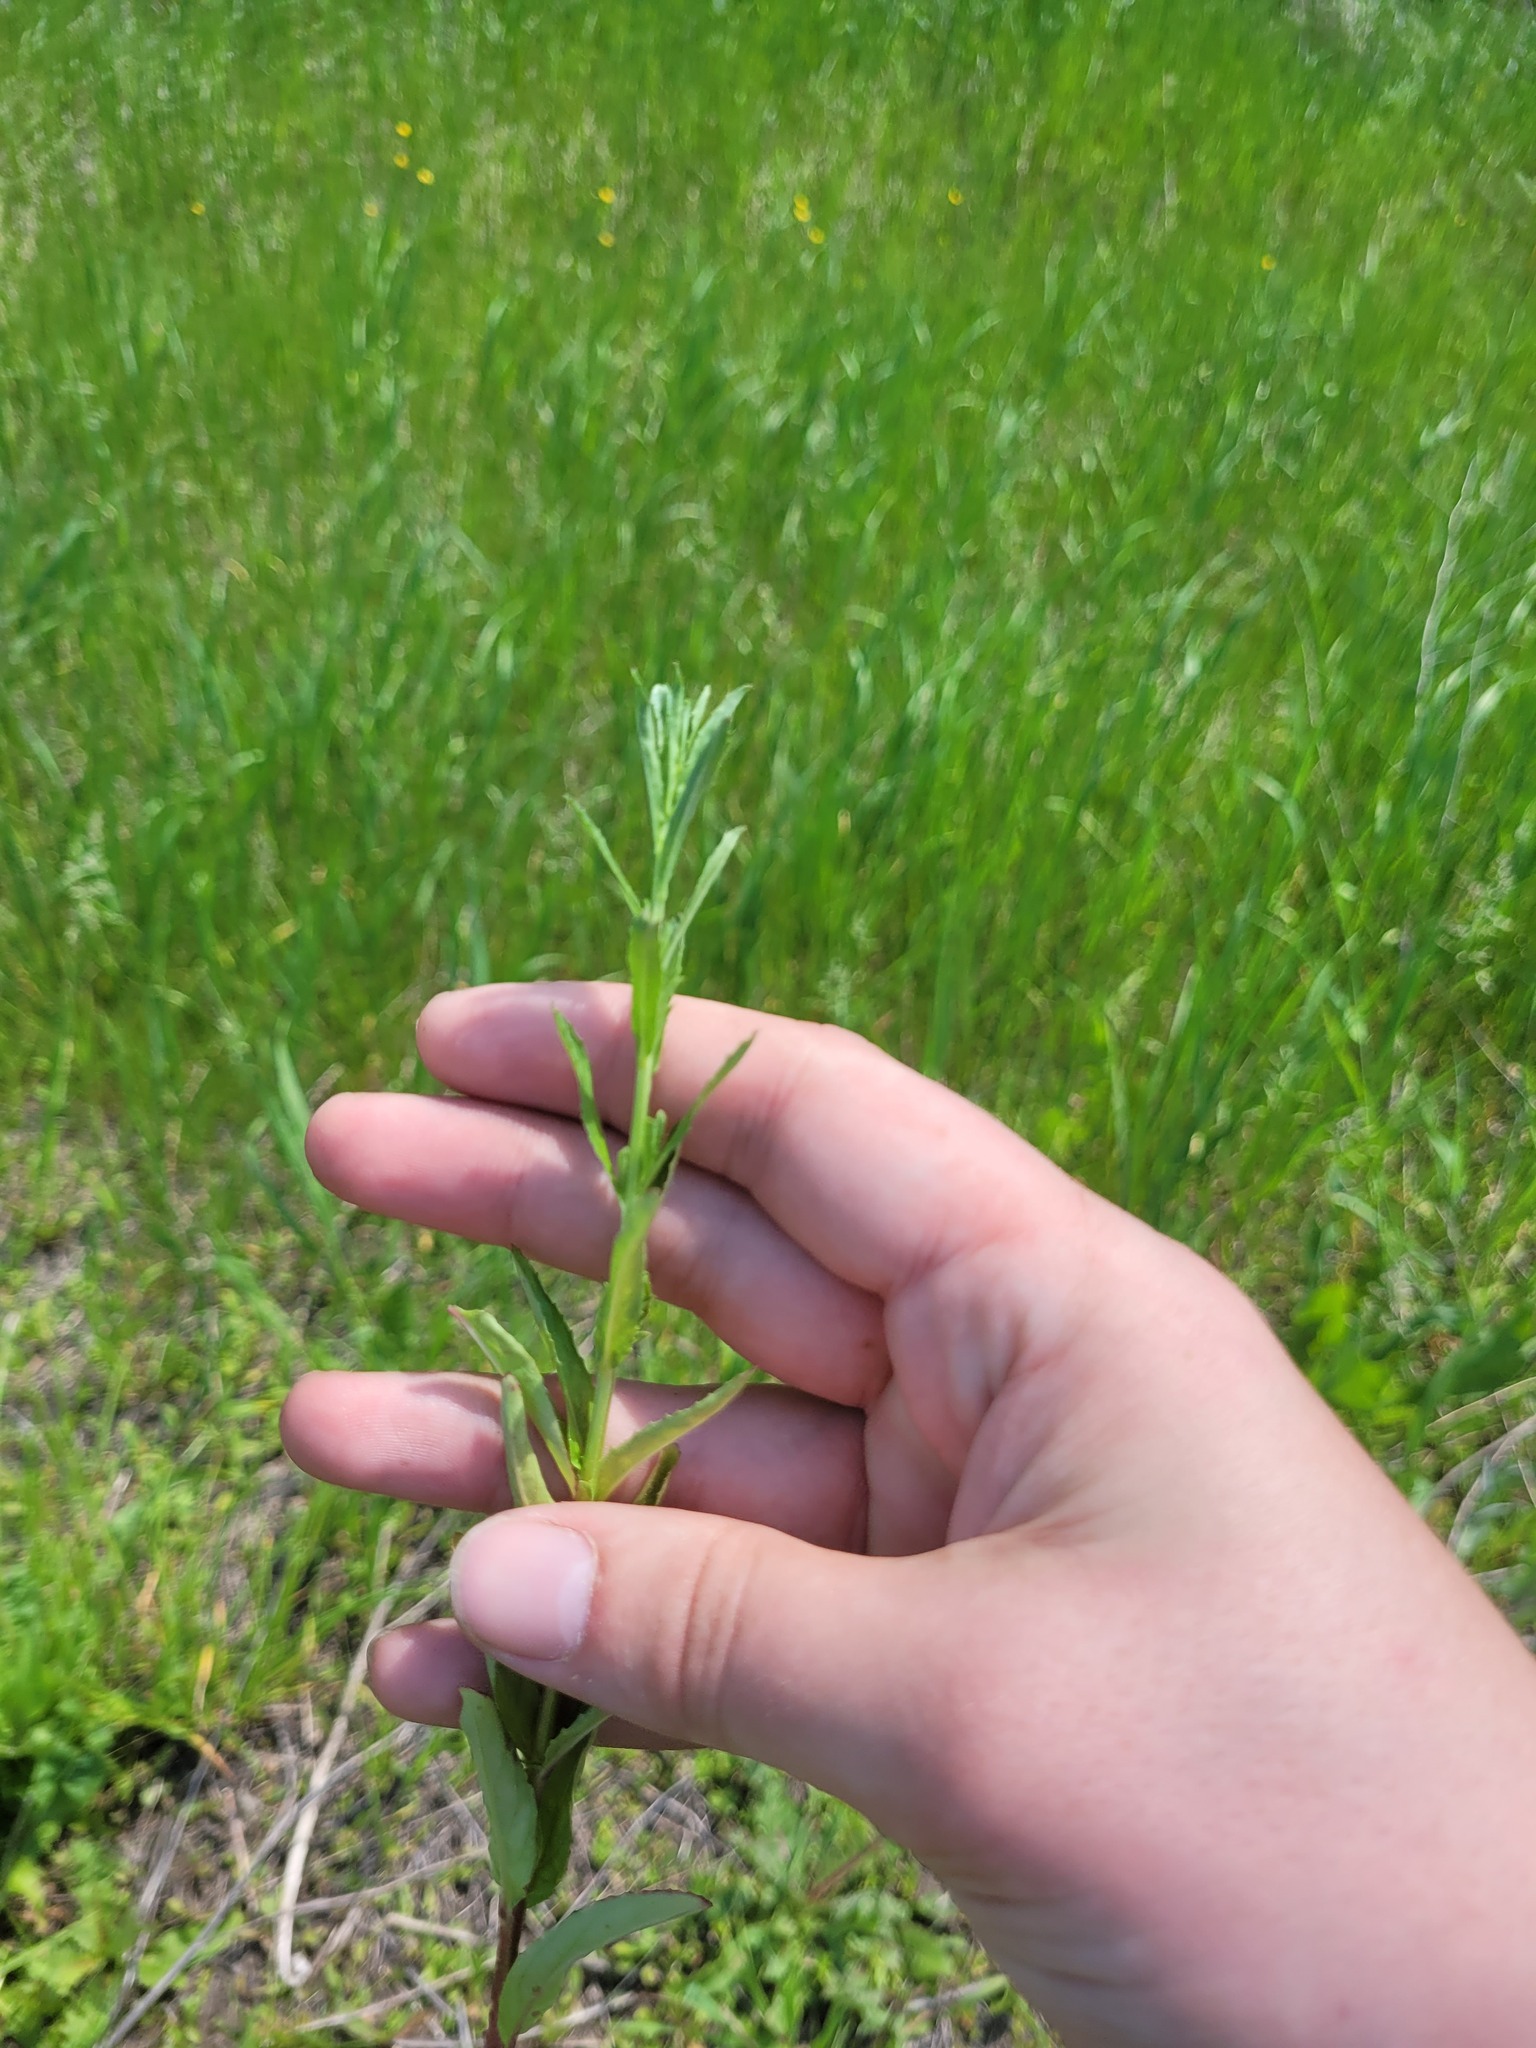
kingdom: Plantae
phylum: Tracheophyta
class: Magnoliopsida
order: Myrtales
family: Onagraceae
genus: Epilobium
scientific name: Epilobium tetragonum
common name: Square-stemmed willowherb
